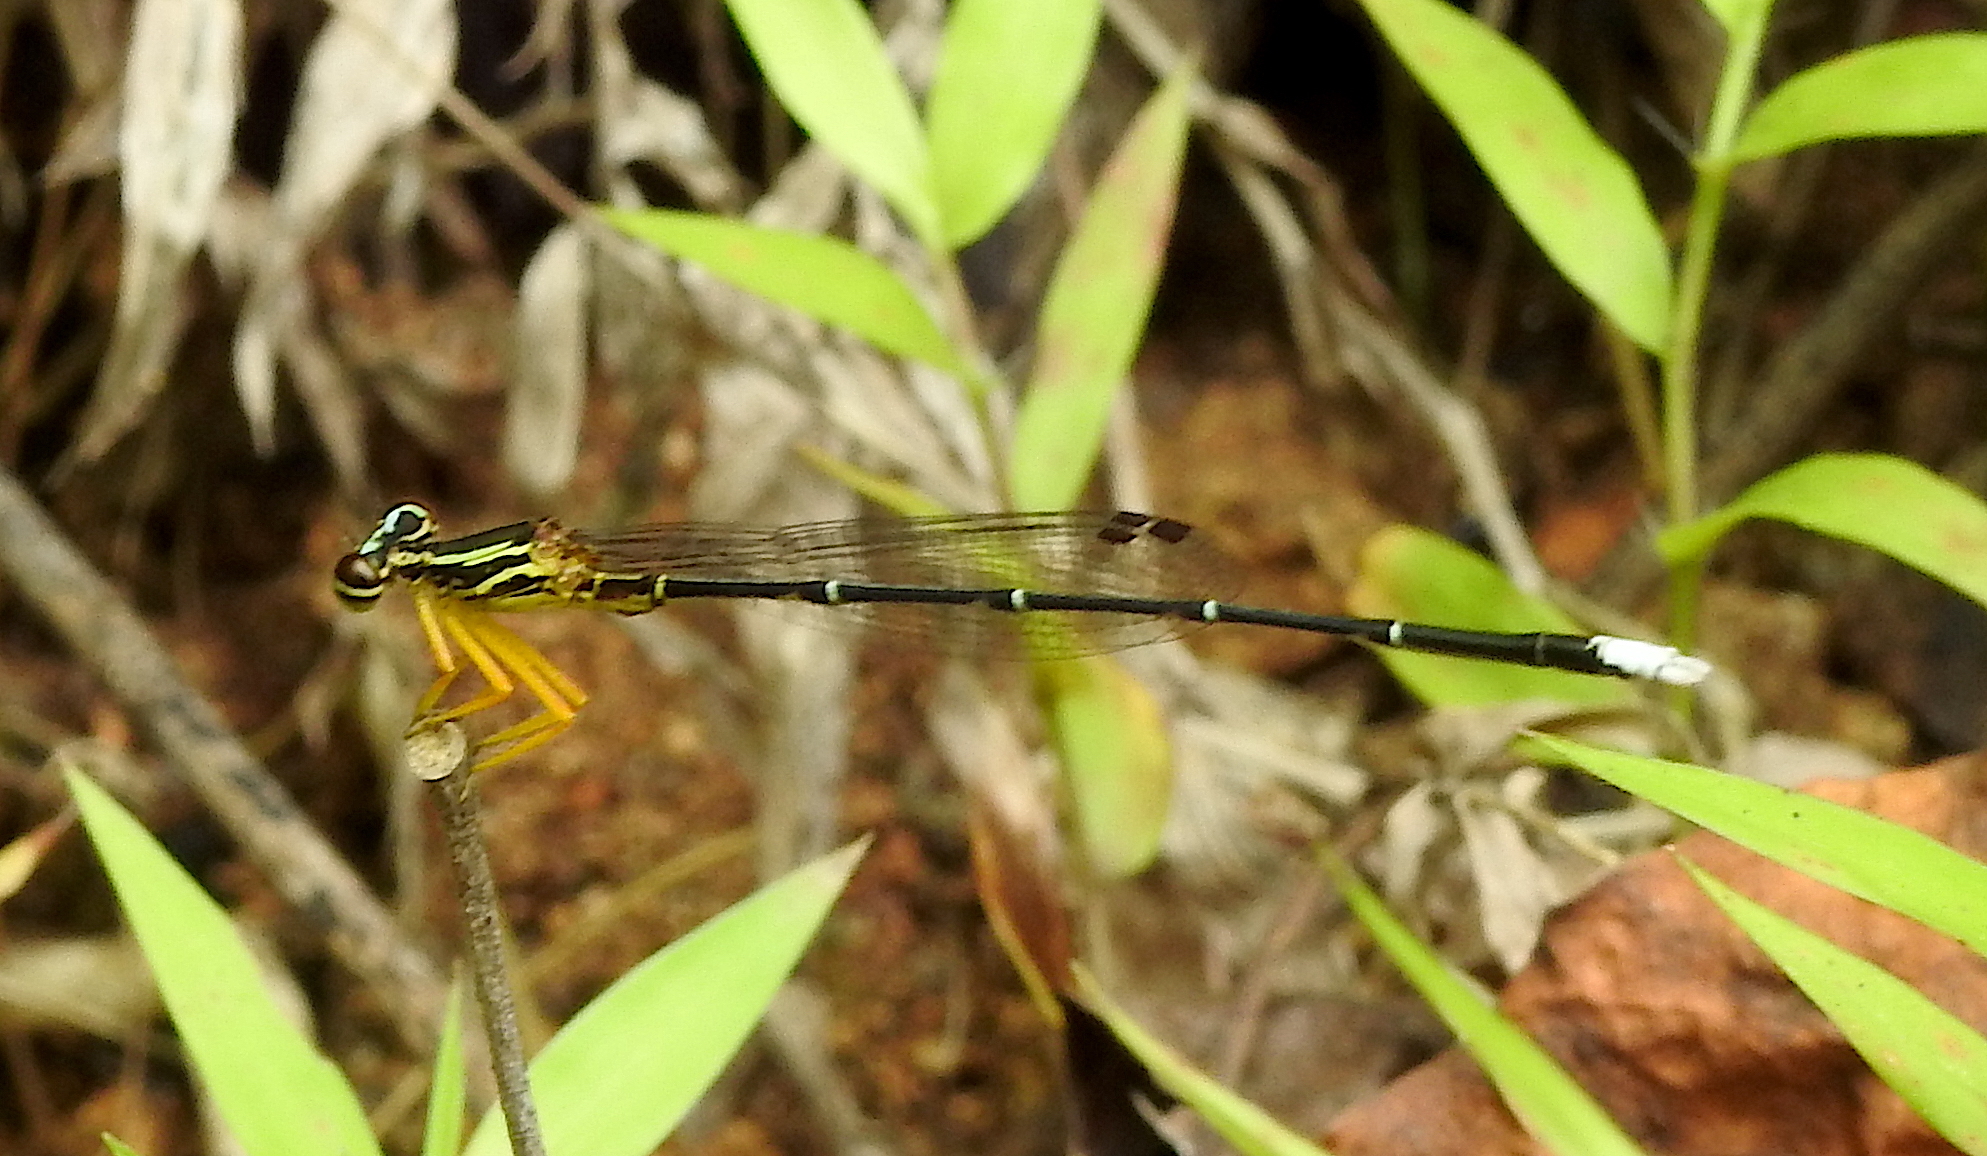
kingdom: Animalia
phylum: Arthropoda
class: Insecta
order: Odonata
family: Platycnemididae
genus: Copera
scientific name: Copera marginipes
